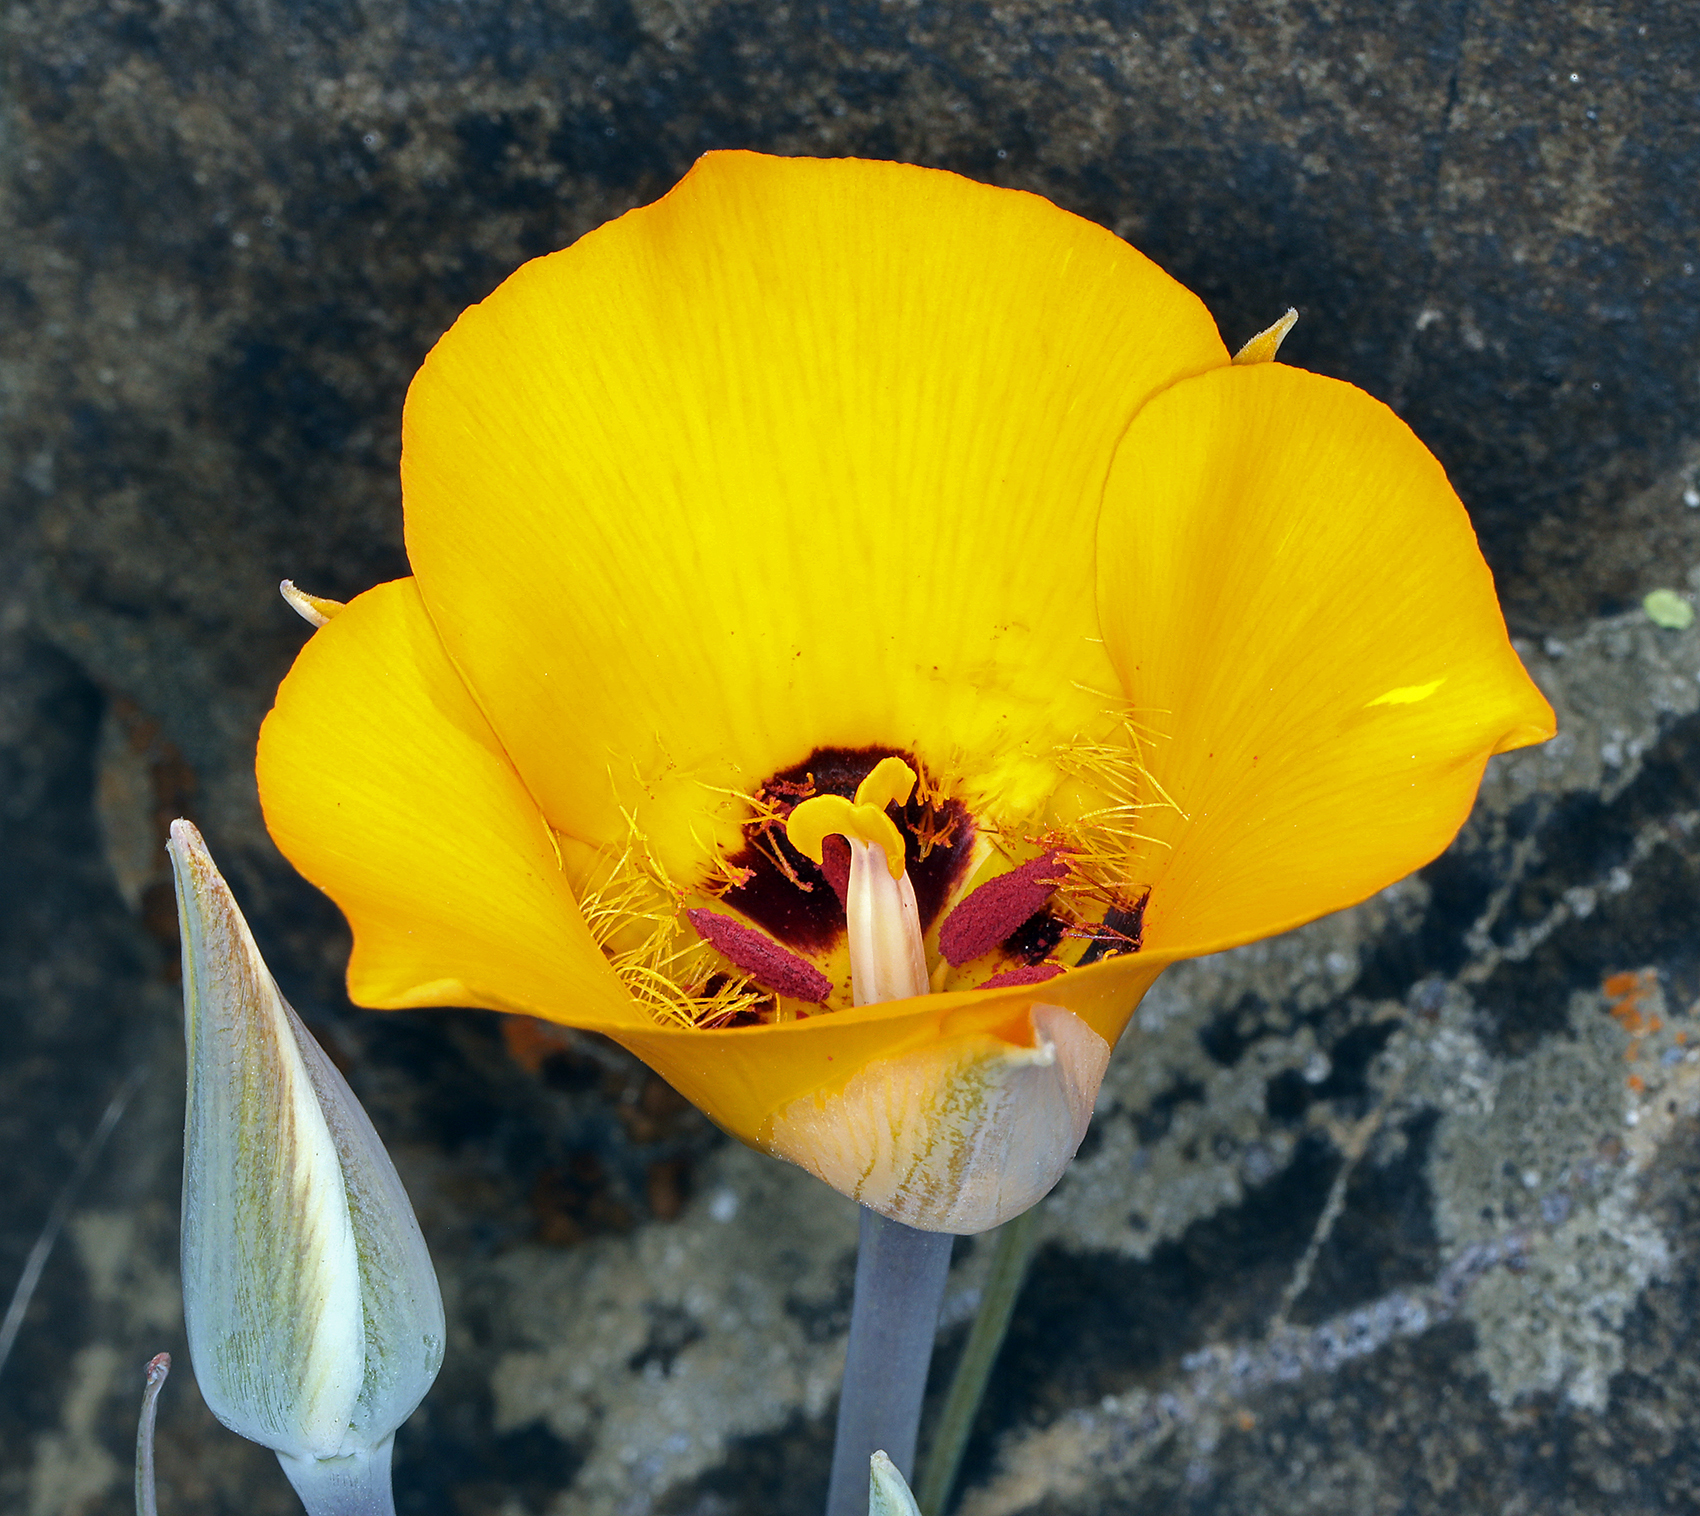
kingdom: Plantae
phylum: Tracheophyta
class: Liliopsida
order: Liliales
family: Liliaceae
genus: Calochortus
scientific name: Calochortus kennedyi
